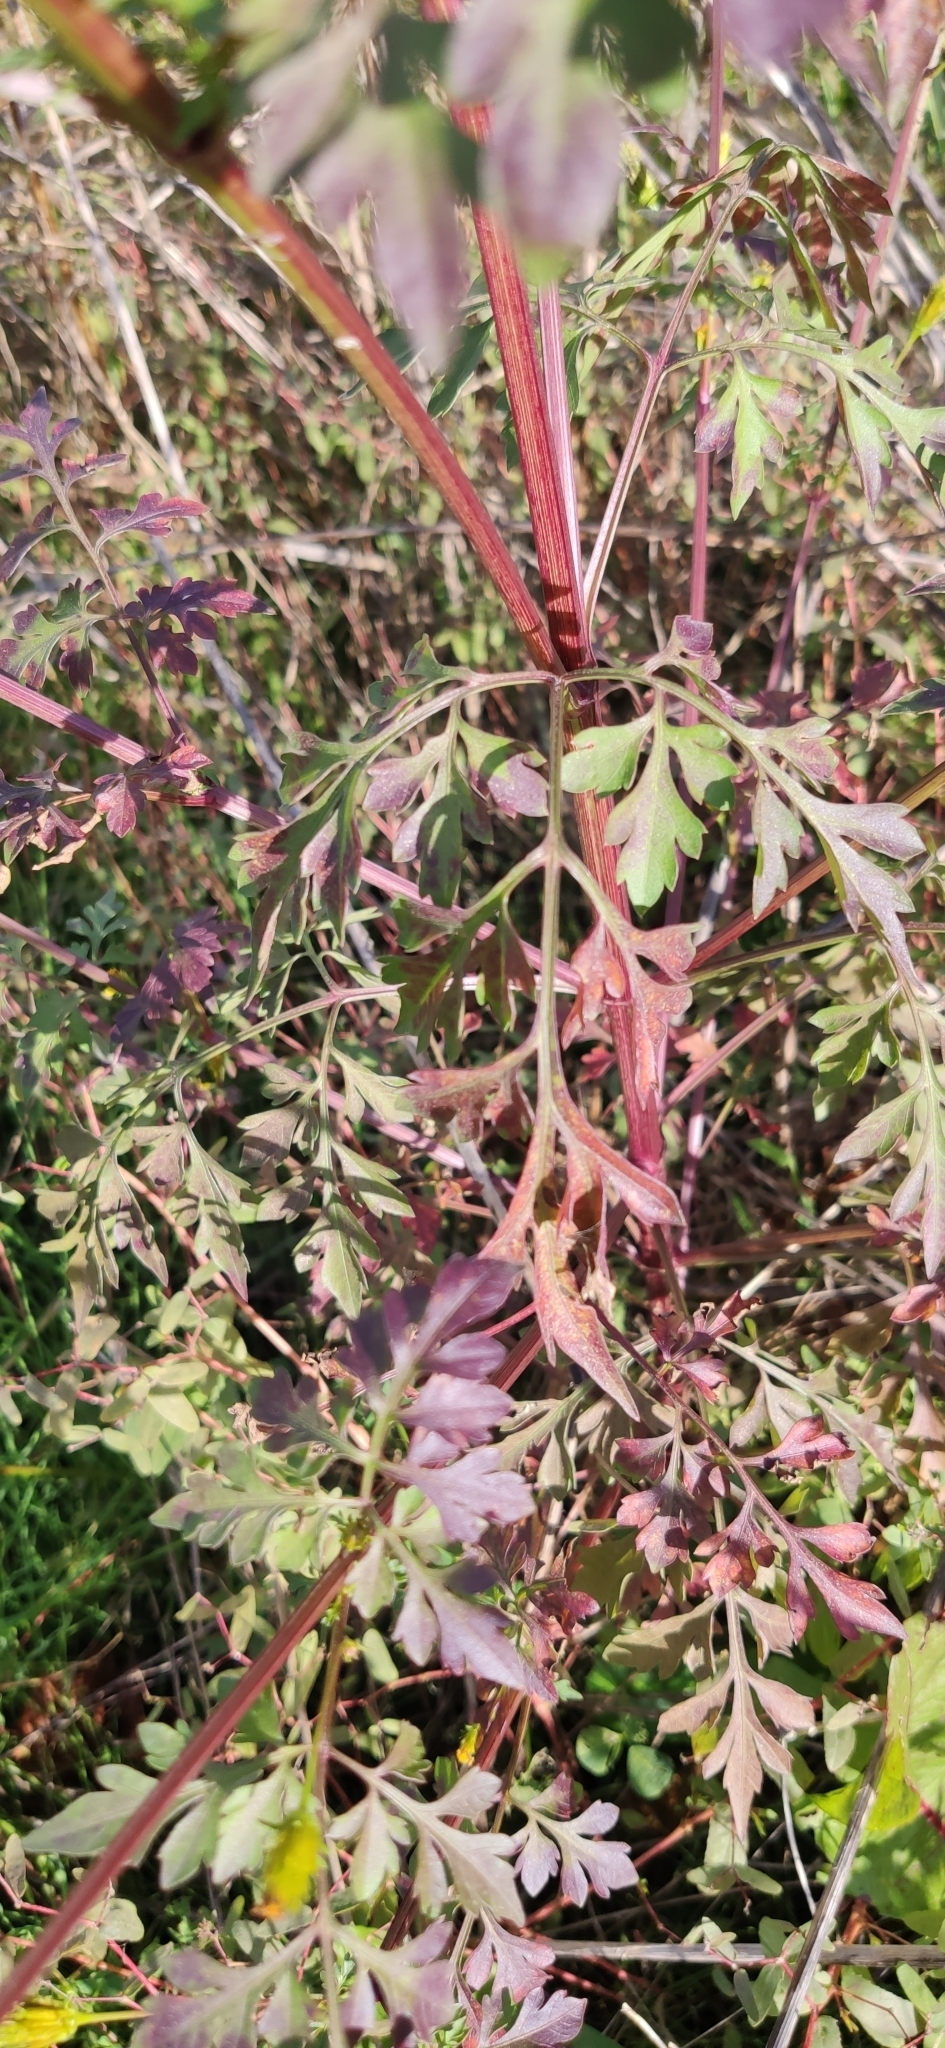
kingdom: Plantae
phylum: Tracheophyta
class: Magnoliopsida
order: Asterales
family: Asteraceae
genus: Bidens
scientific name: Bidens bipinnata
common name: Spanish-needles
